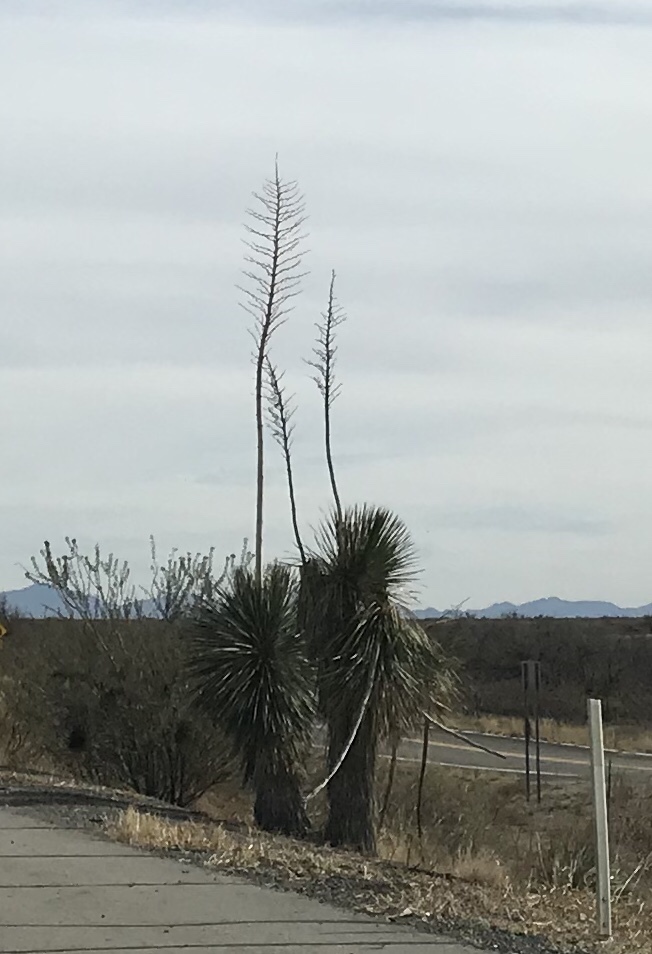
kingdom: Plantae
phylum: Tracheophyta
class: Liliopsida
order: Asparagales
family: Asparagaceae
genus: Yucca
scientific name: Yucca elata
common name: Palmella
